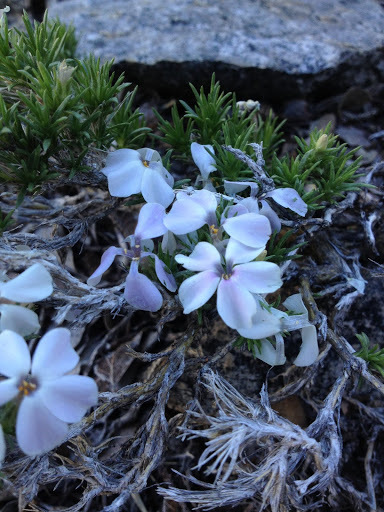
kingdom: Plantae
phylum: Tracheophyta
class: Magnoliopsida
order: Ericales
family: Polemoniaceae
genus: Phlox
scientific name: Phlox diffusa
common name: Mat phlox
